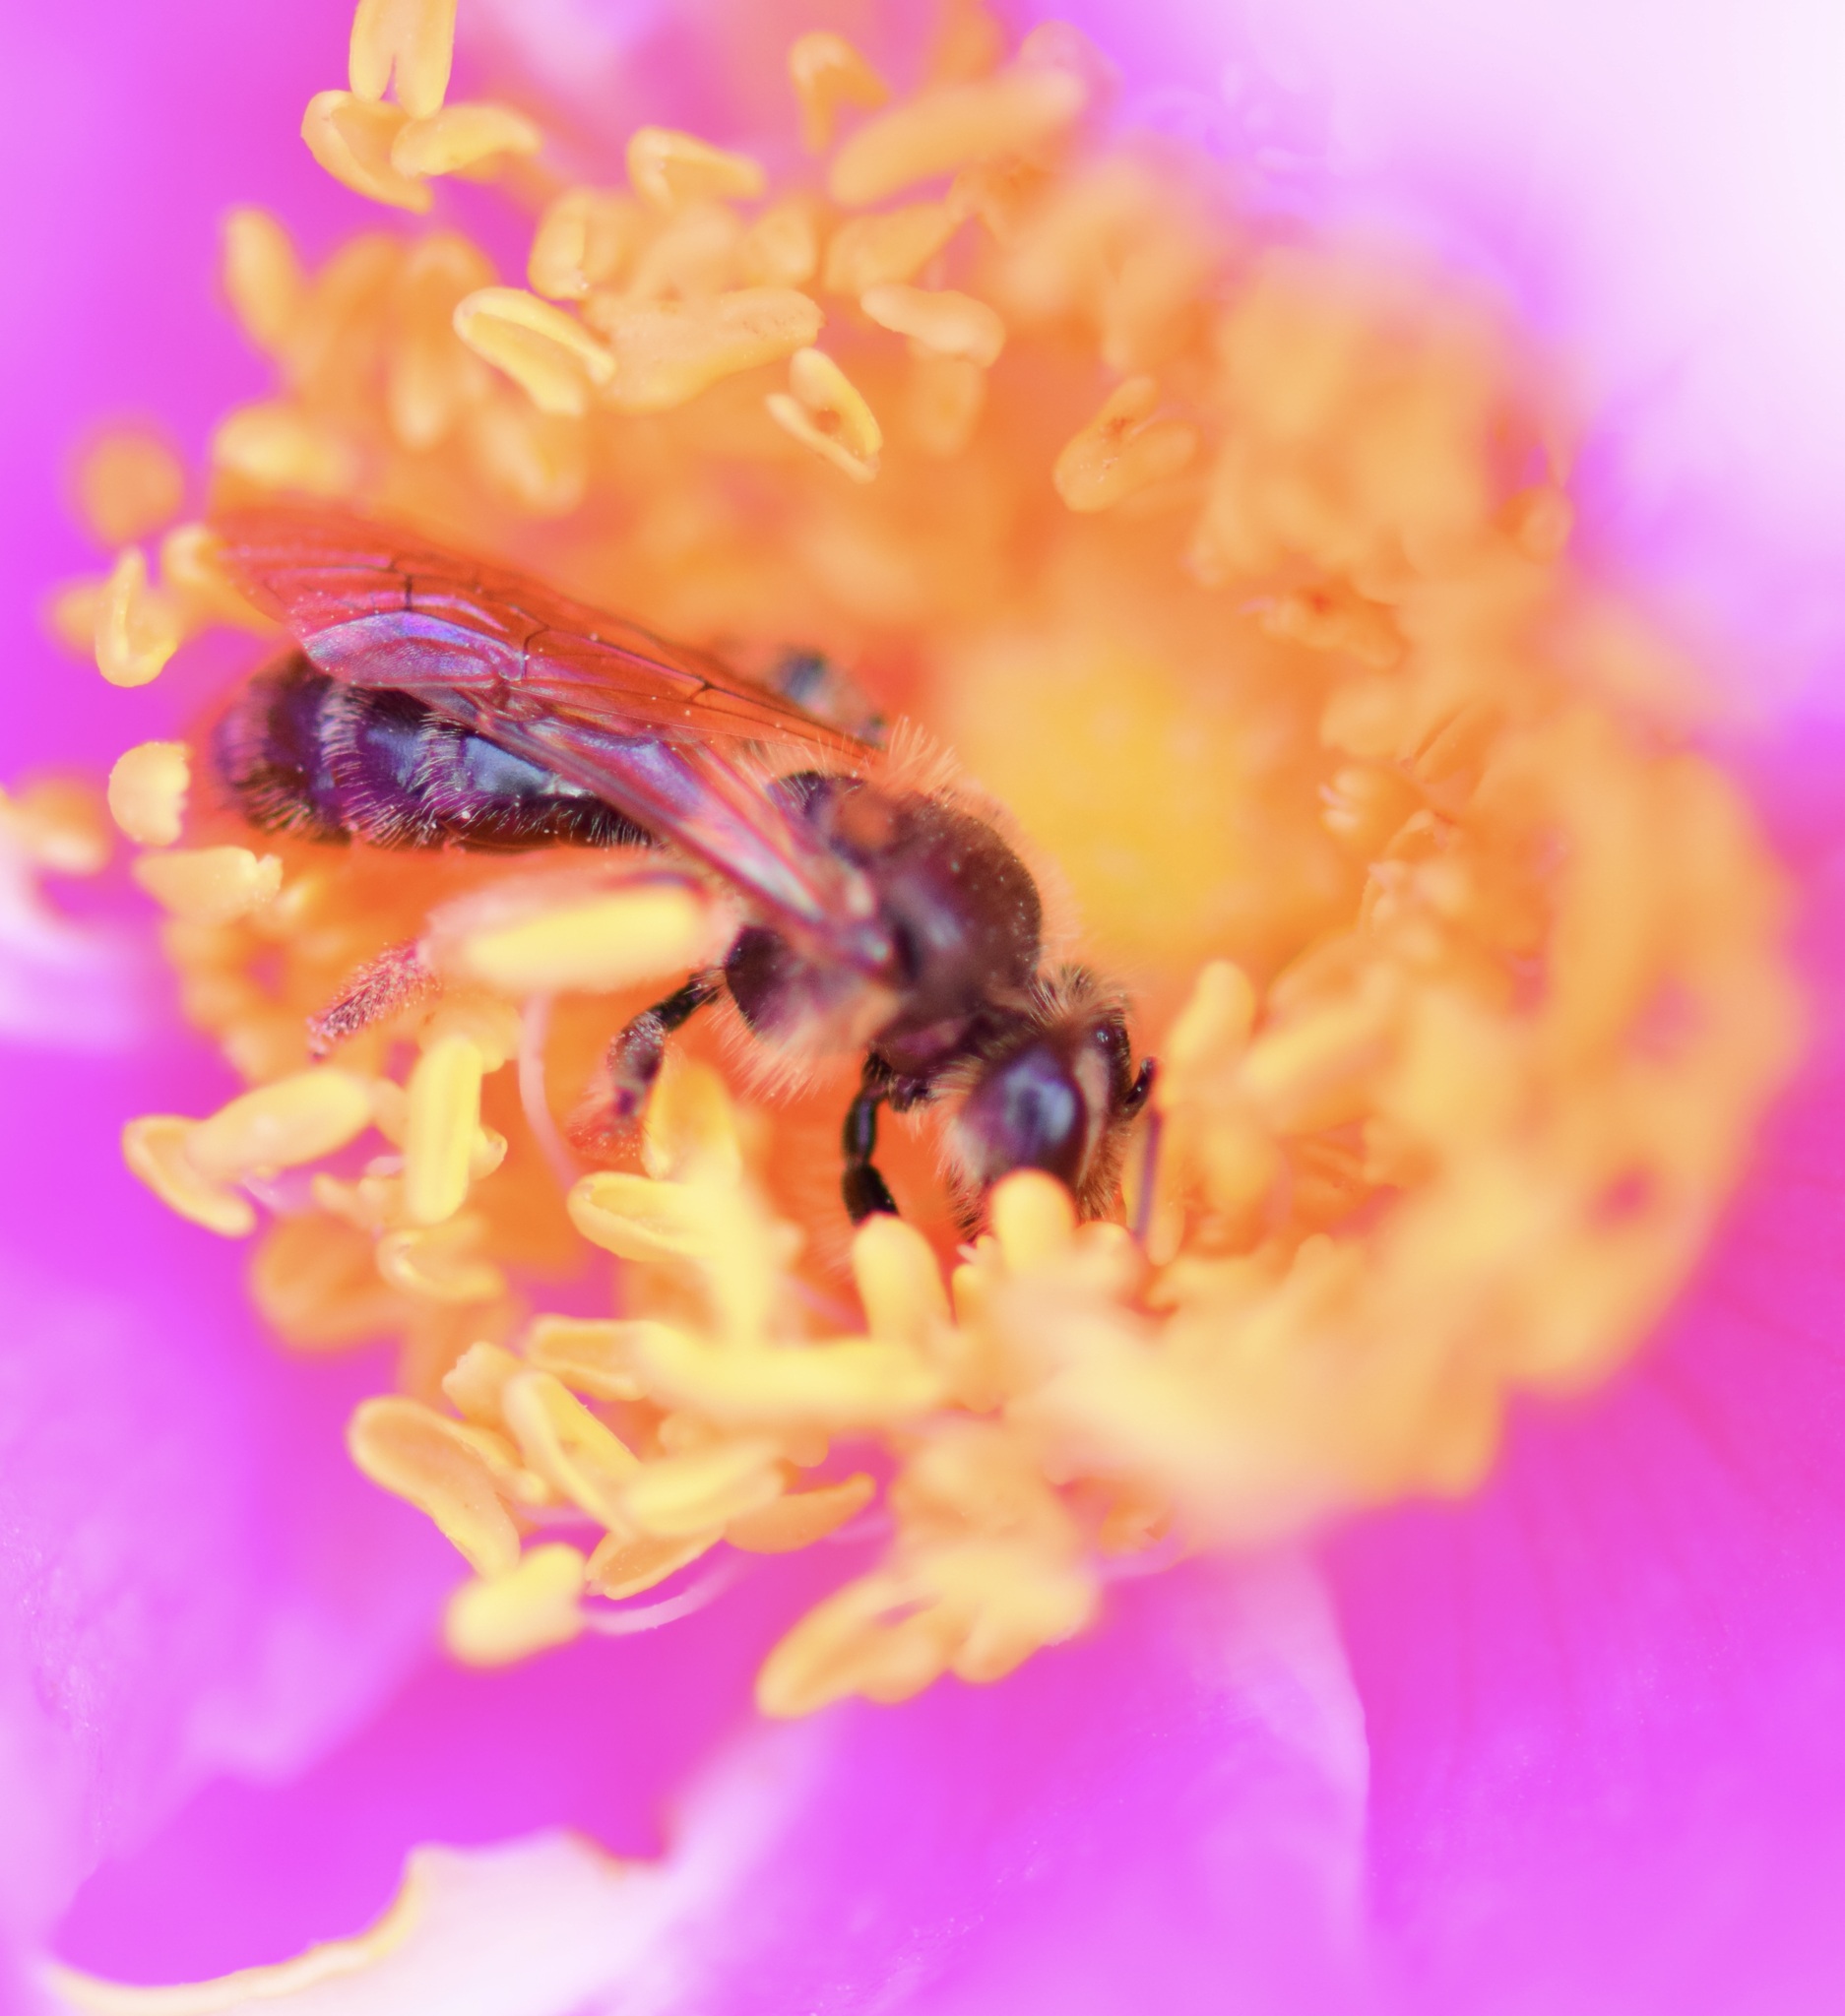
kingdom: Animalia
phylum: Arthropoda
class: Insecta
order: Hymenoptera
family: Andrenidae
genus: Andrena
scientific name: Andrena thaspii
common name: Parsnip miner bee
